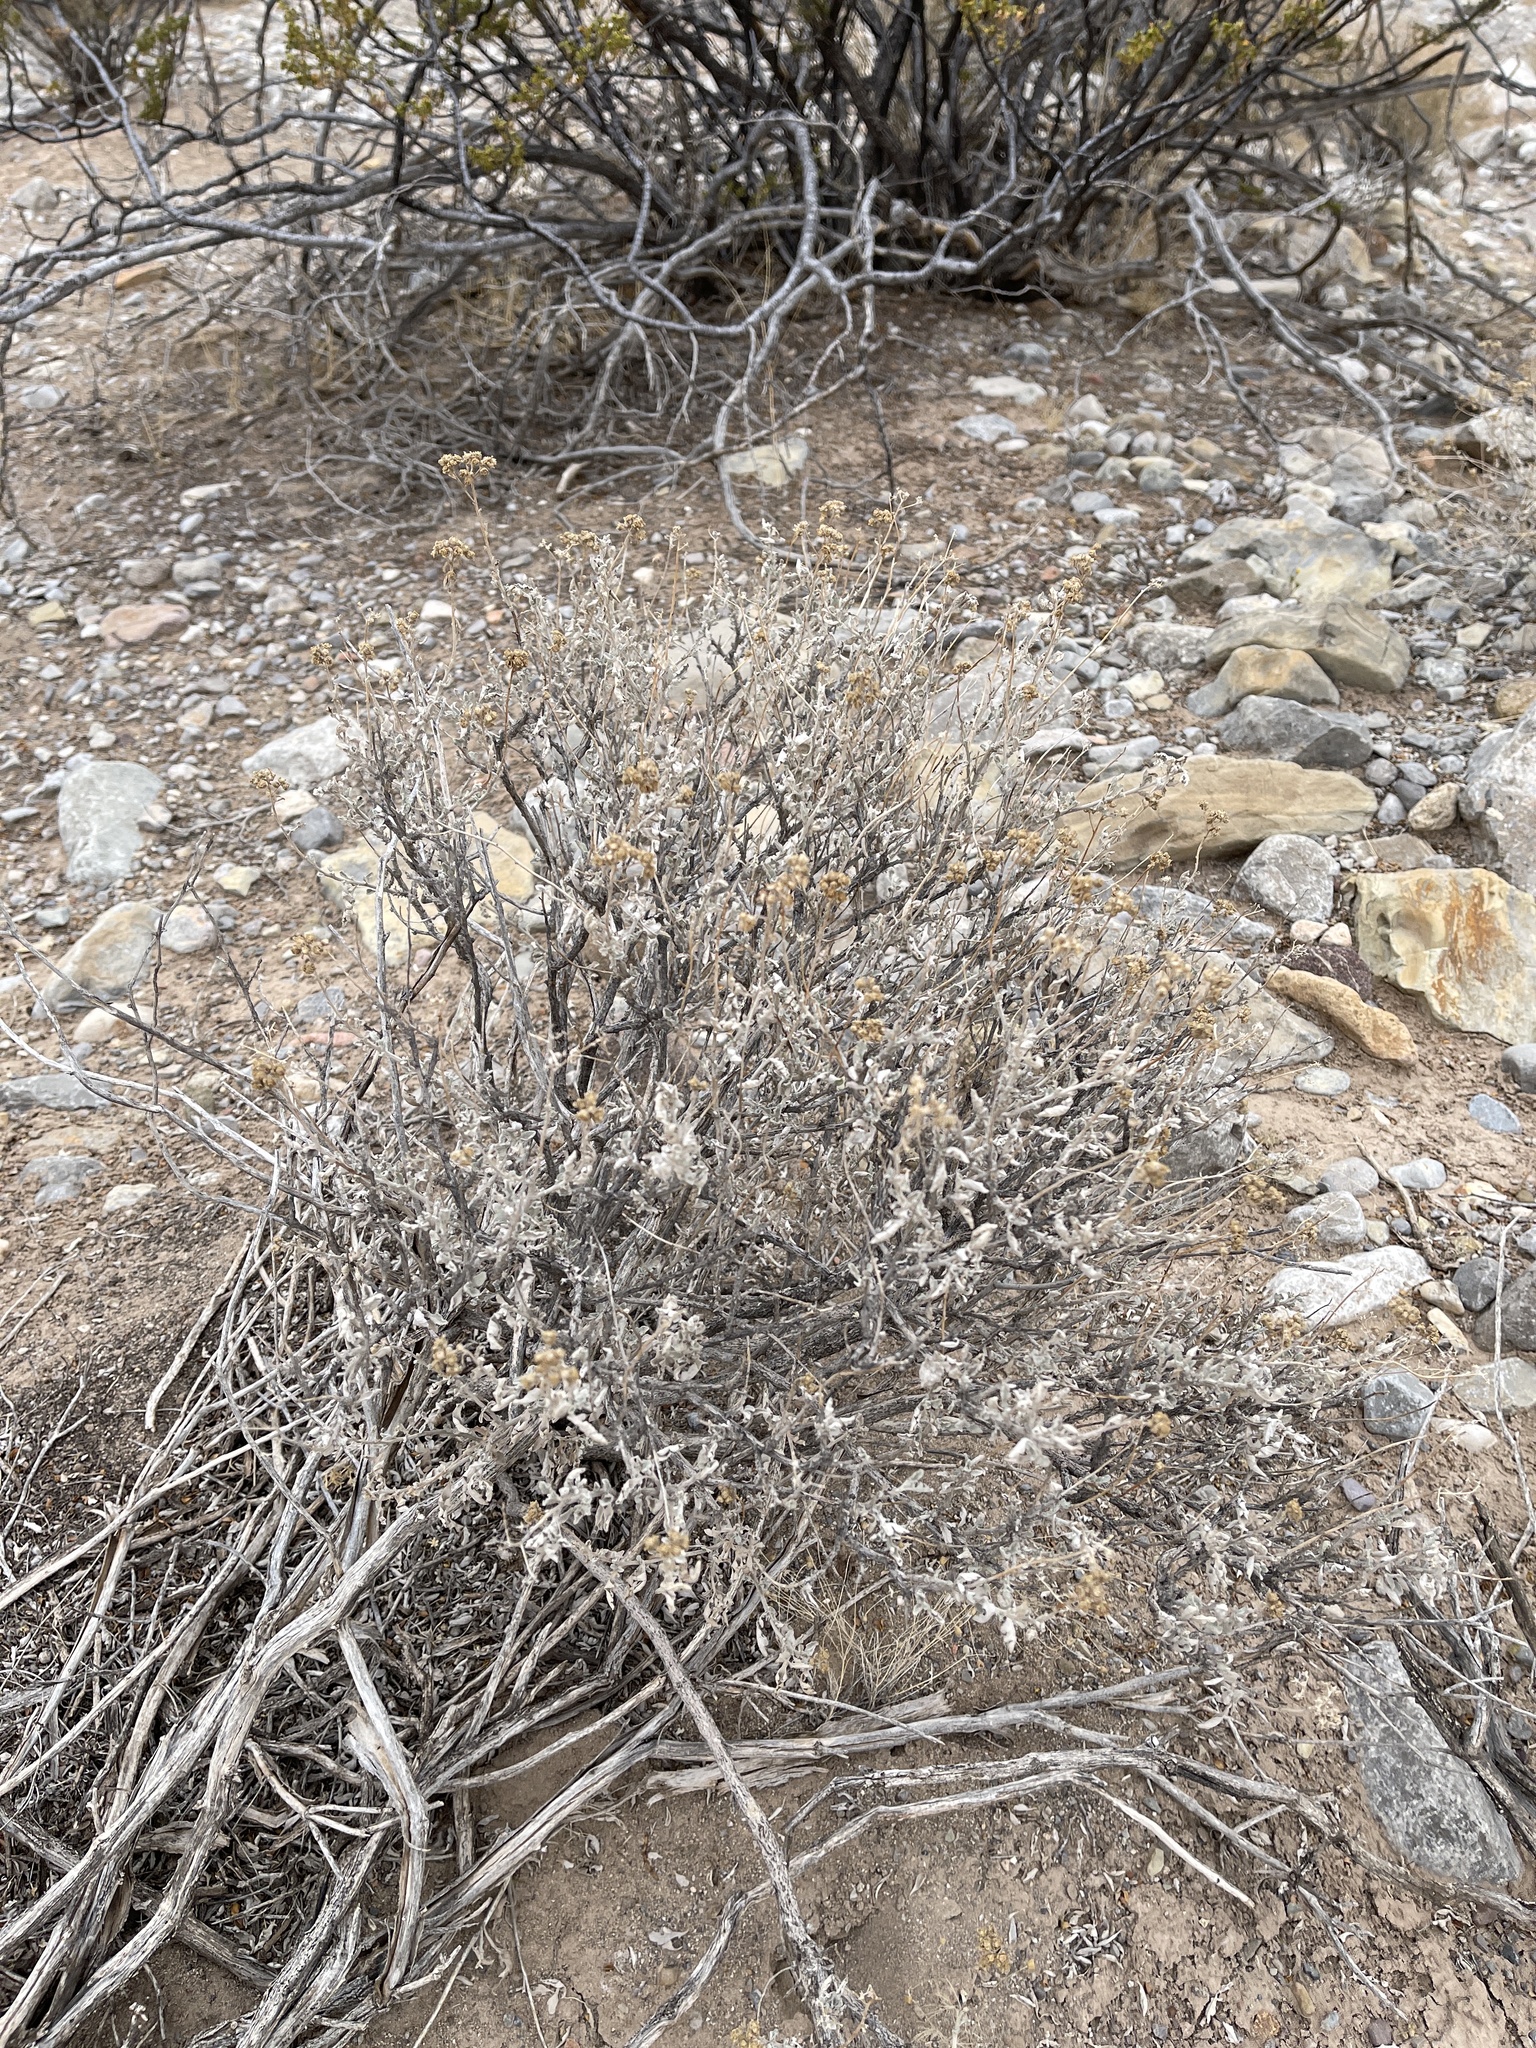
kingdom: Plantae
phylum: Tracheophyta
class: Magnoliopsida
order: Asterales
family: Asteraceae
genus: Parthenium
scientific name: Parthenium incanum
